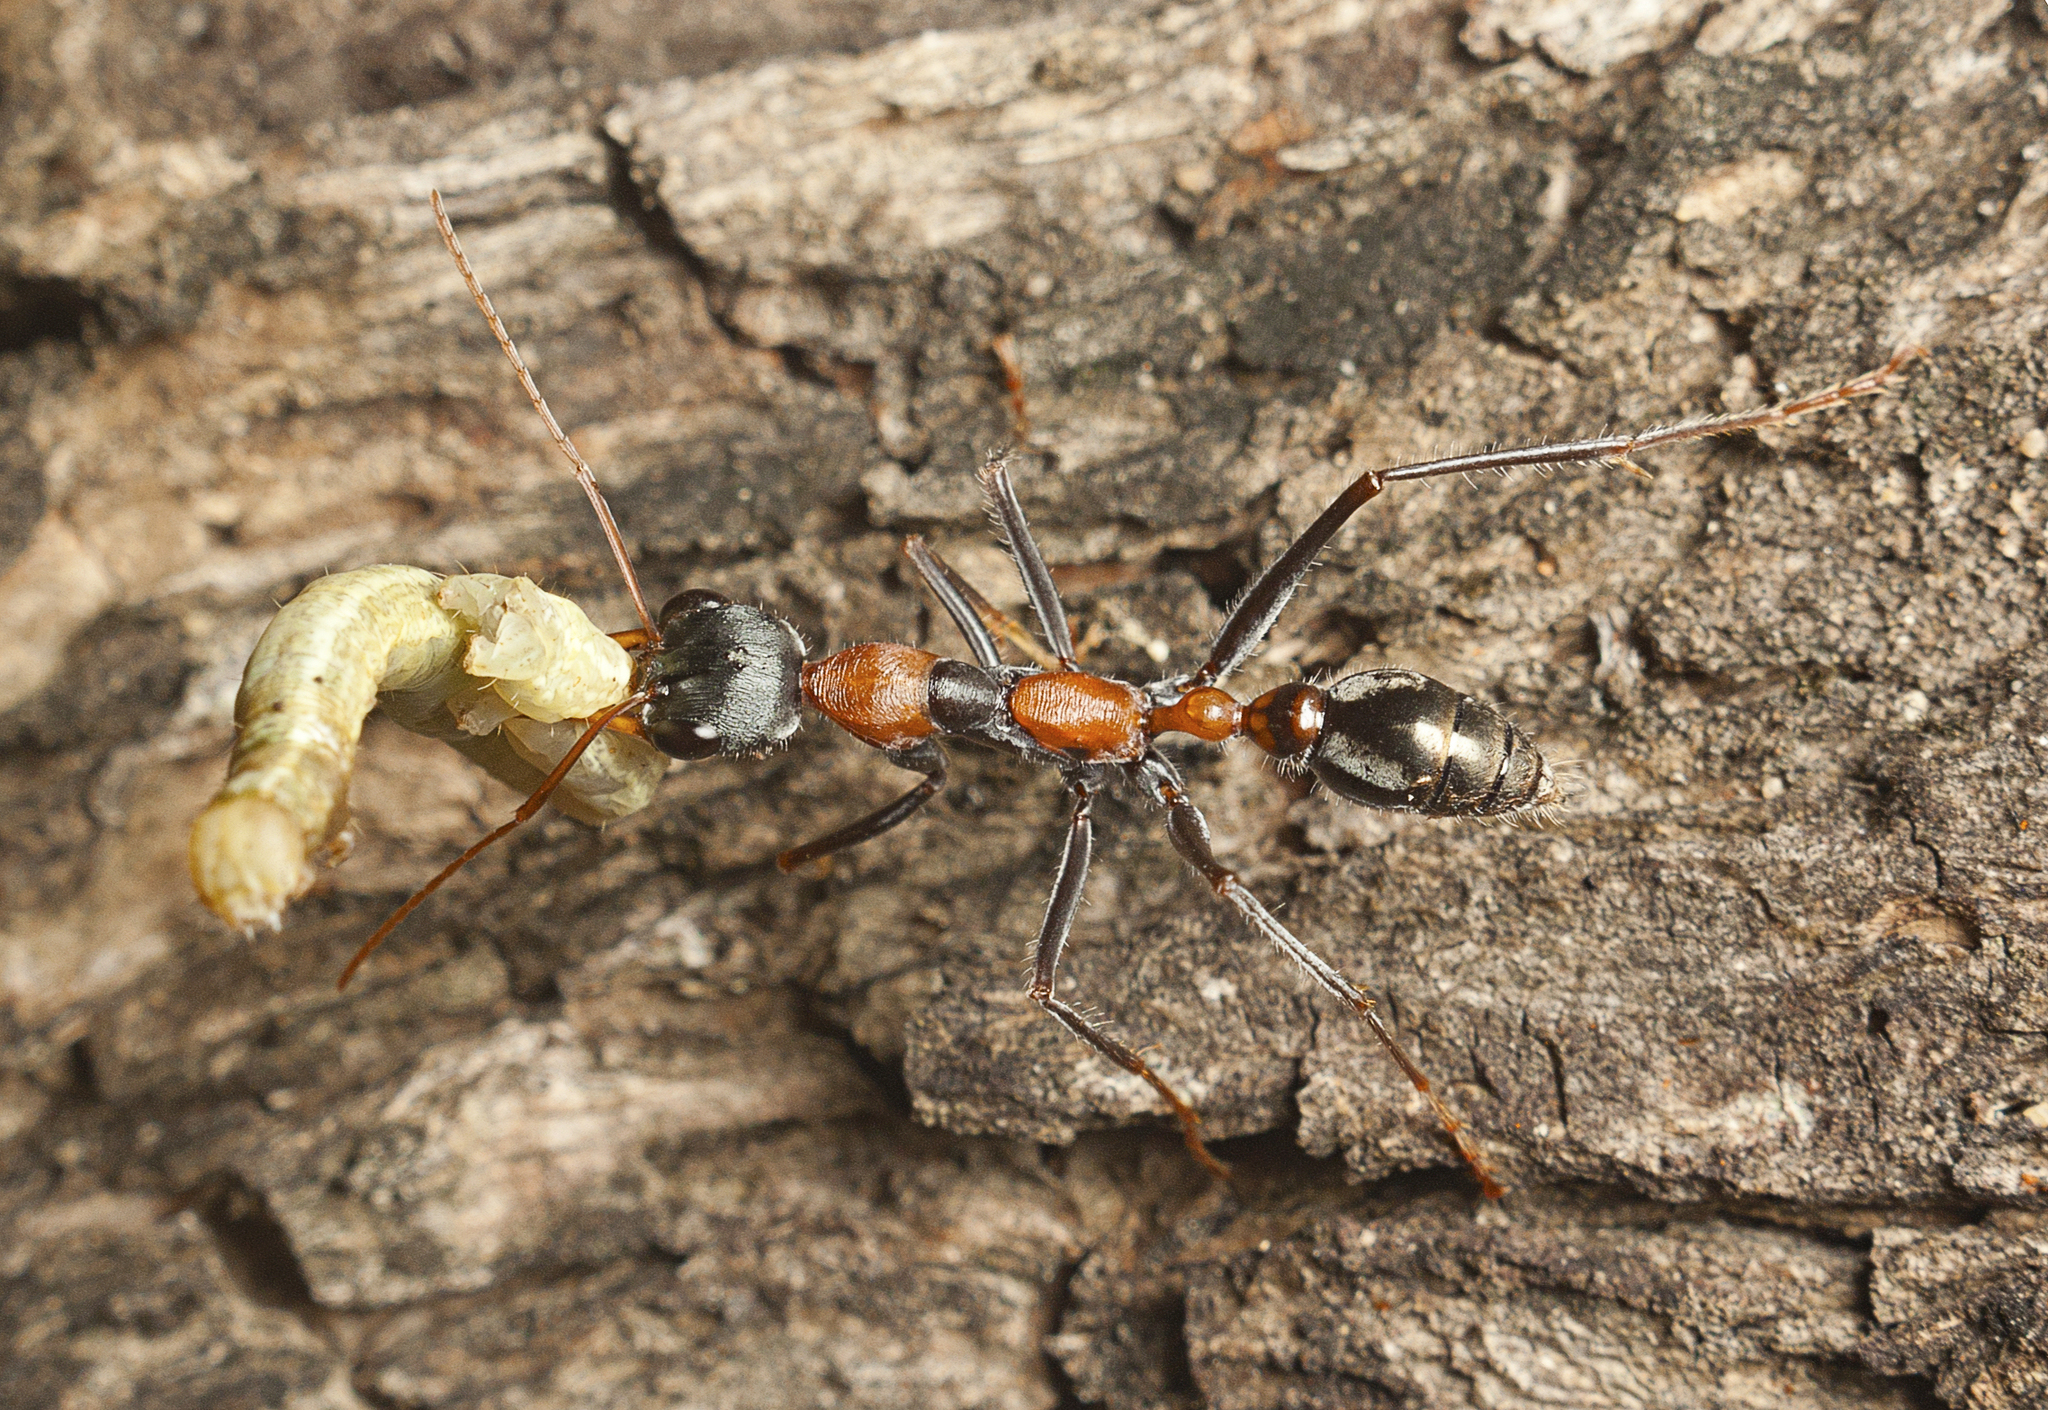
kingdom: Animalia
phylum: Arthropoda
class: Insecta
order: Hymenoptera
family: Formicidae
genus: Myrmecia
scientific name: Myrmecia nigrocincta
